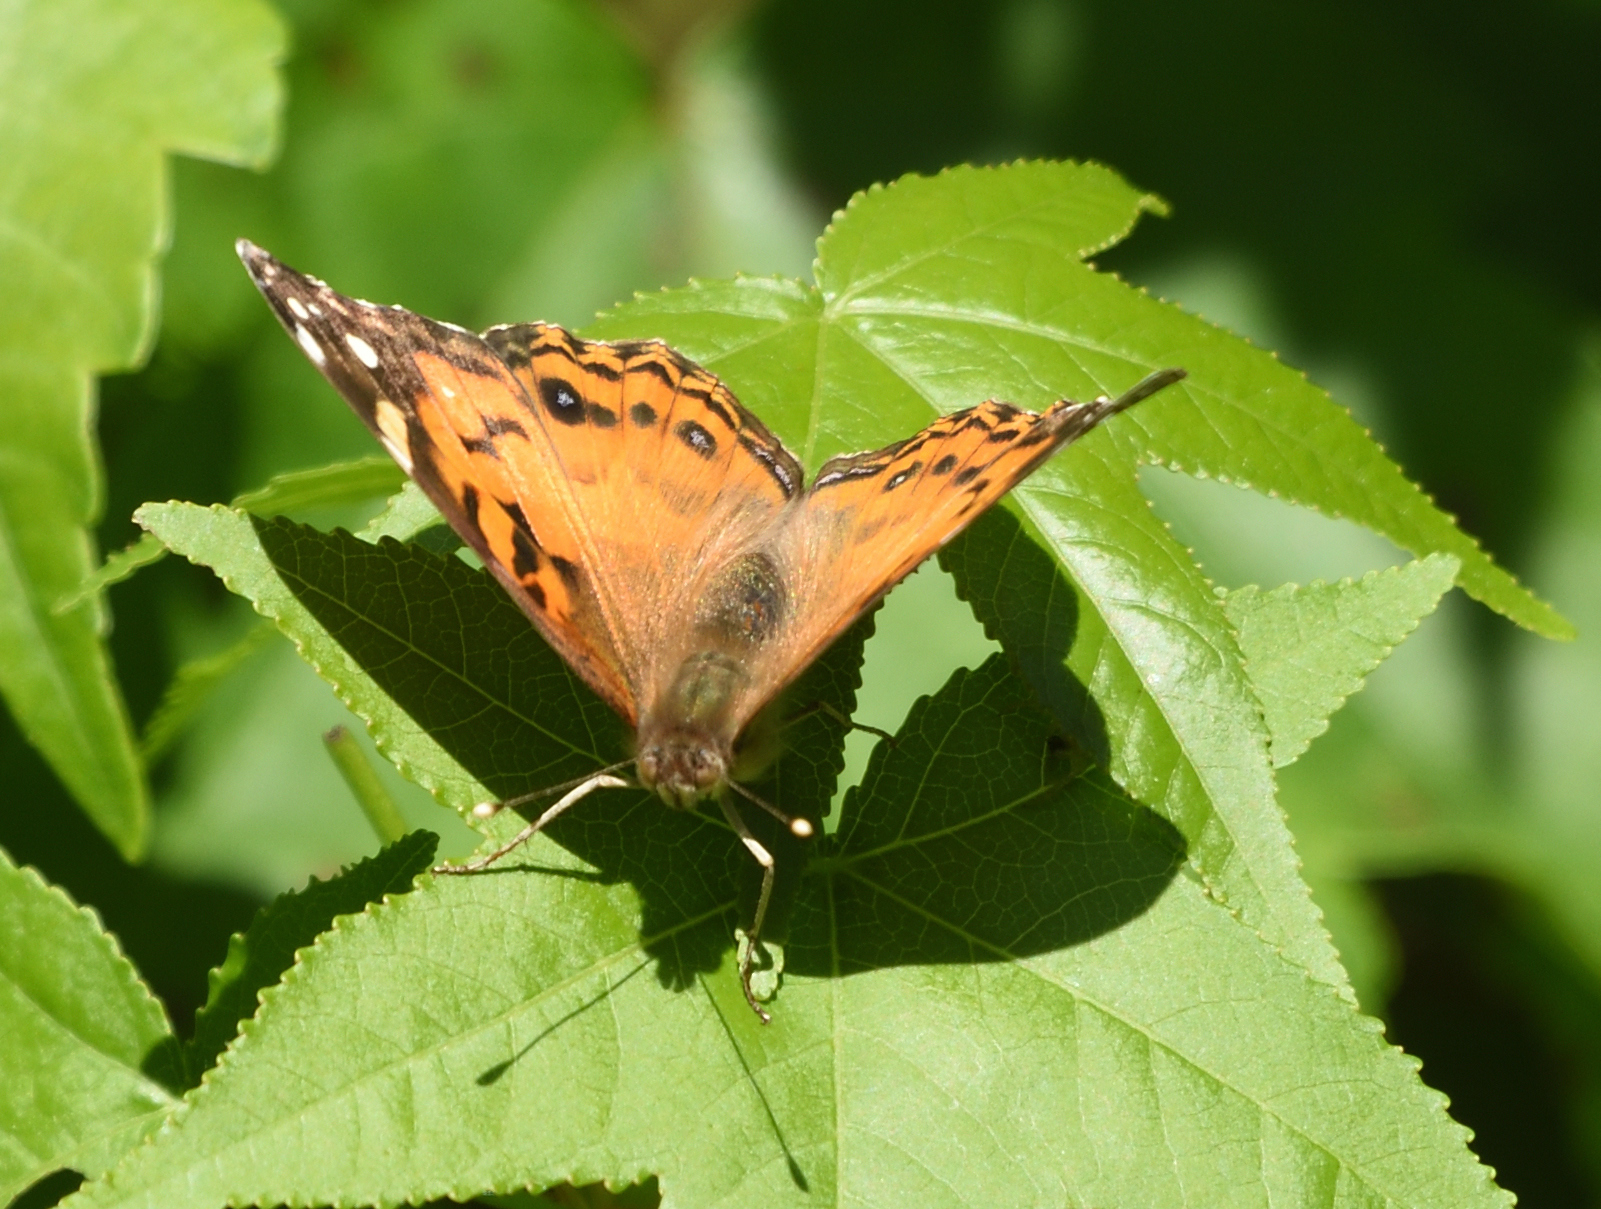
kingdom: Animalia
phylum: Arthropoda
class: Insecta
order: Lepidoptera
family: Nymphalidae
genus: Vanessa
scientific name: Vanessa virginiensis
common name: American lady
